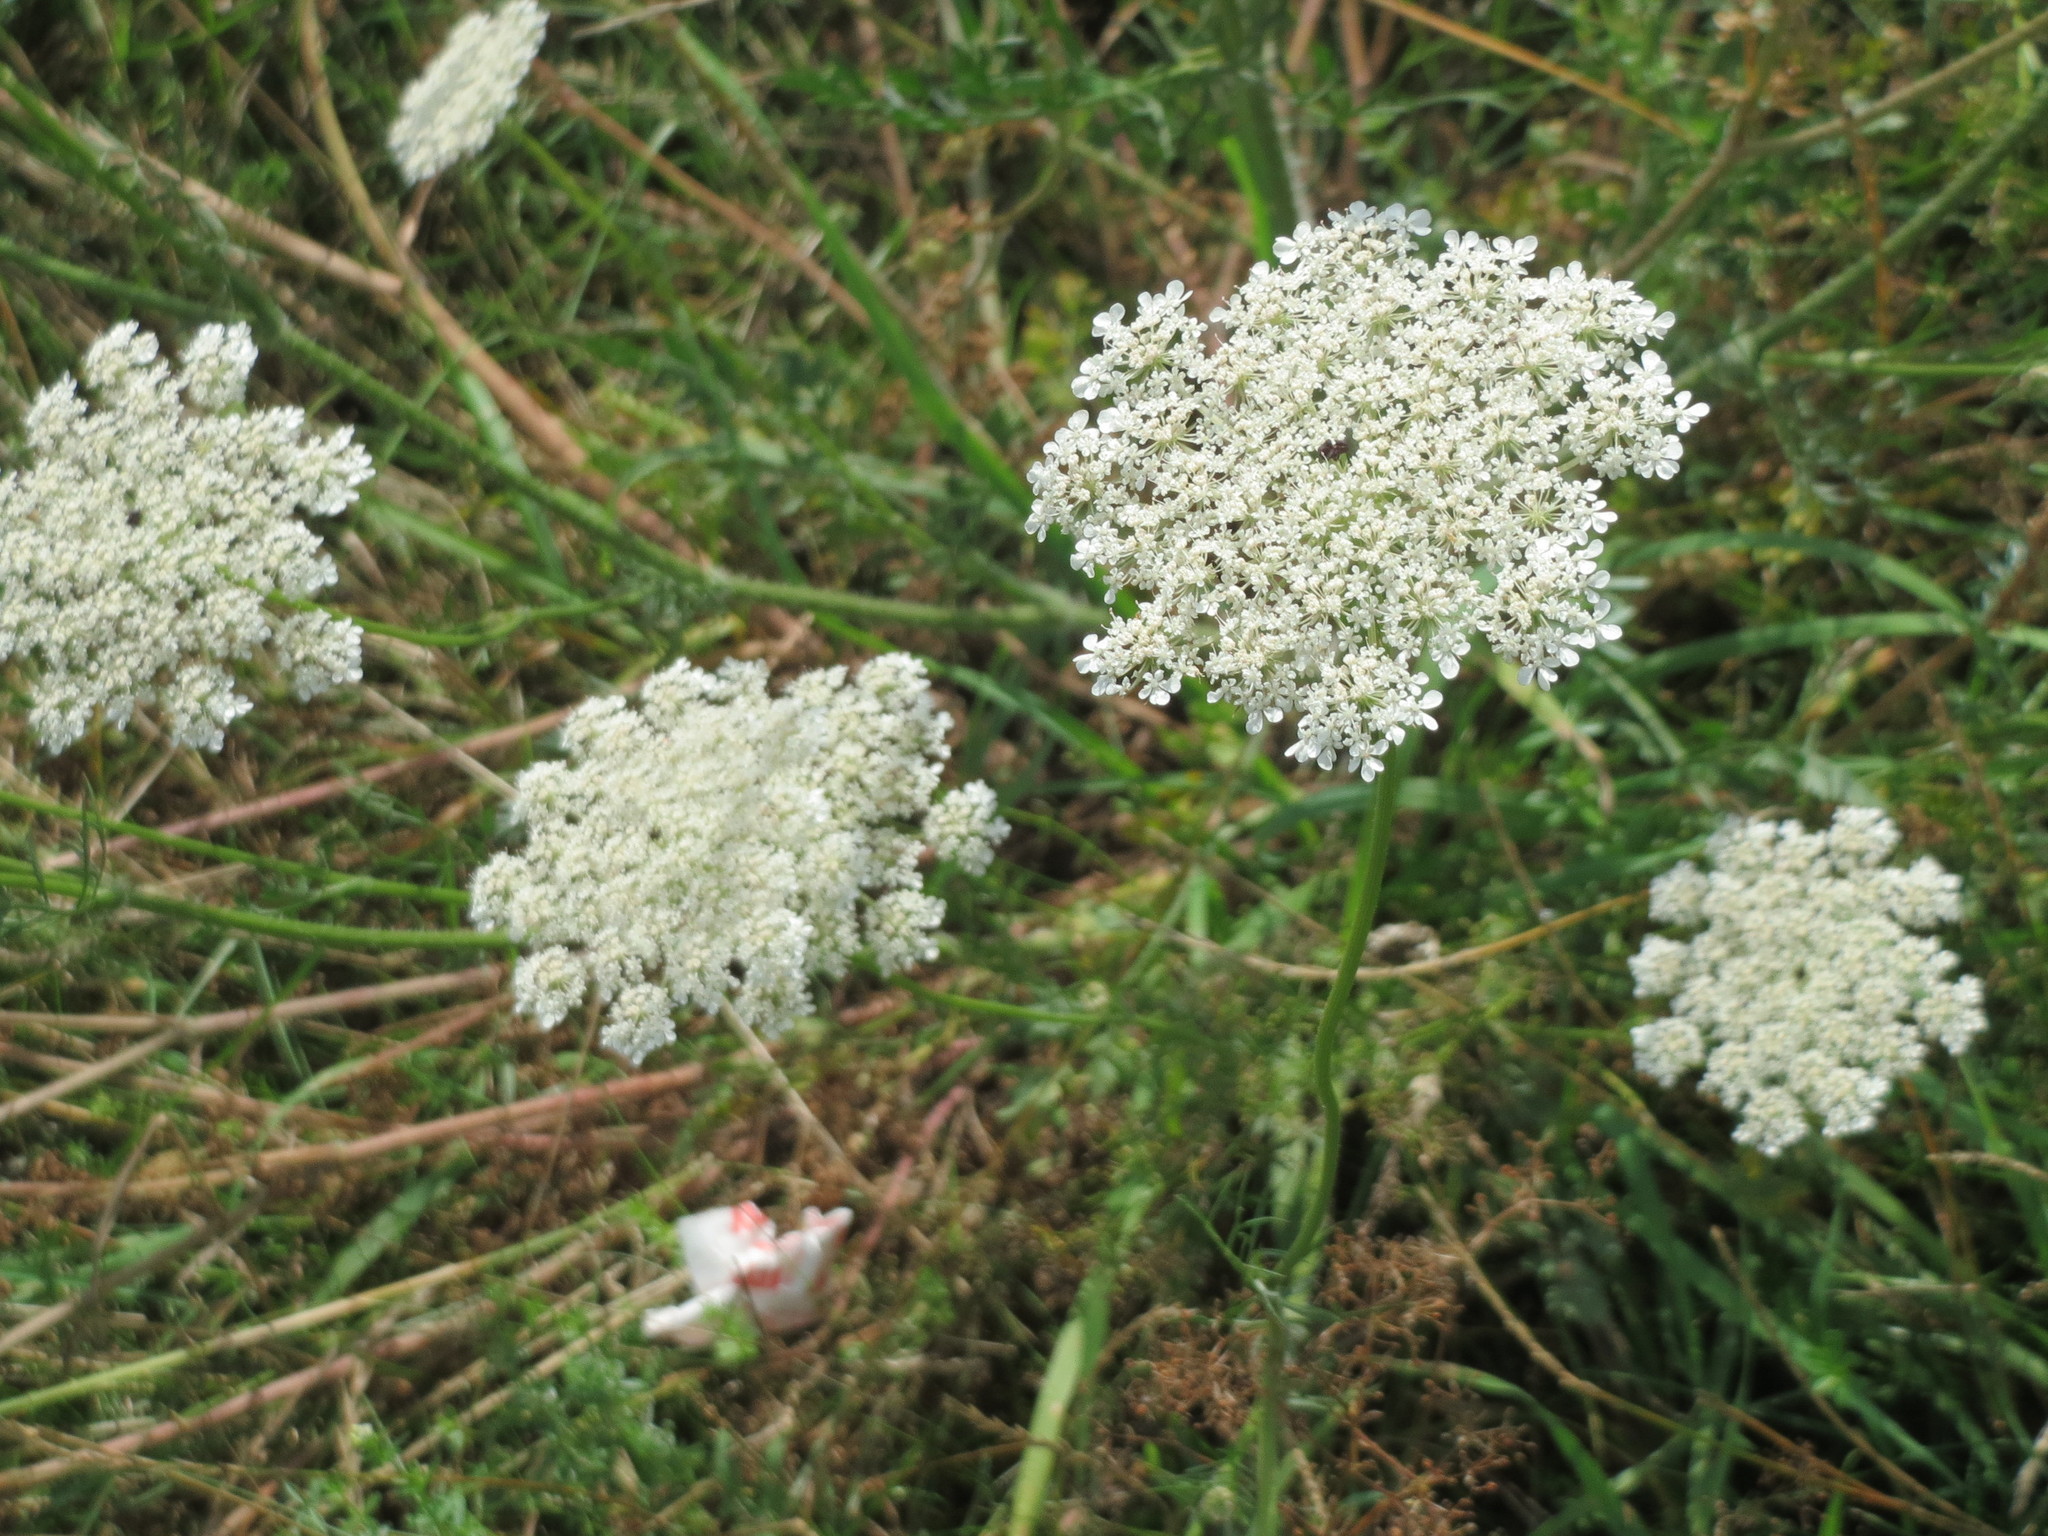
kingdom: Plantae
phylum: Tracheophyta
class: Magnoliopsida
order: Apiales
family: Apiaceae
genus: Daucus
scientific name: Daucus carota
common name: Wild carrot
